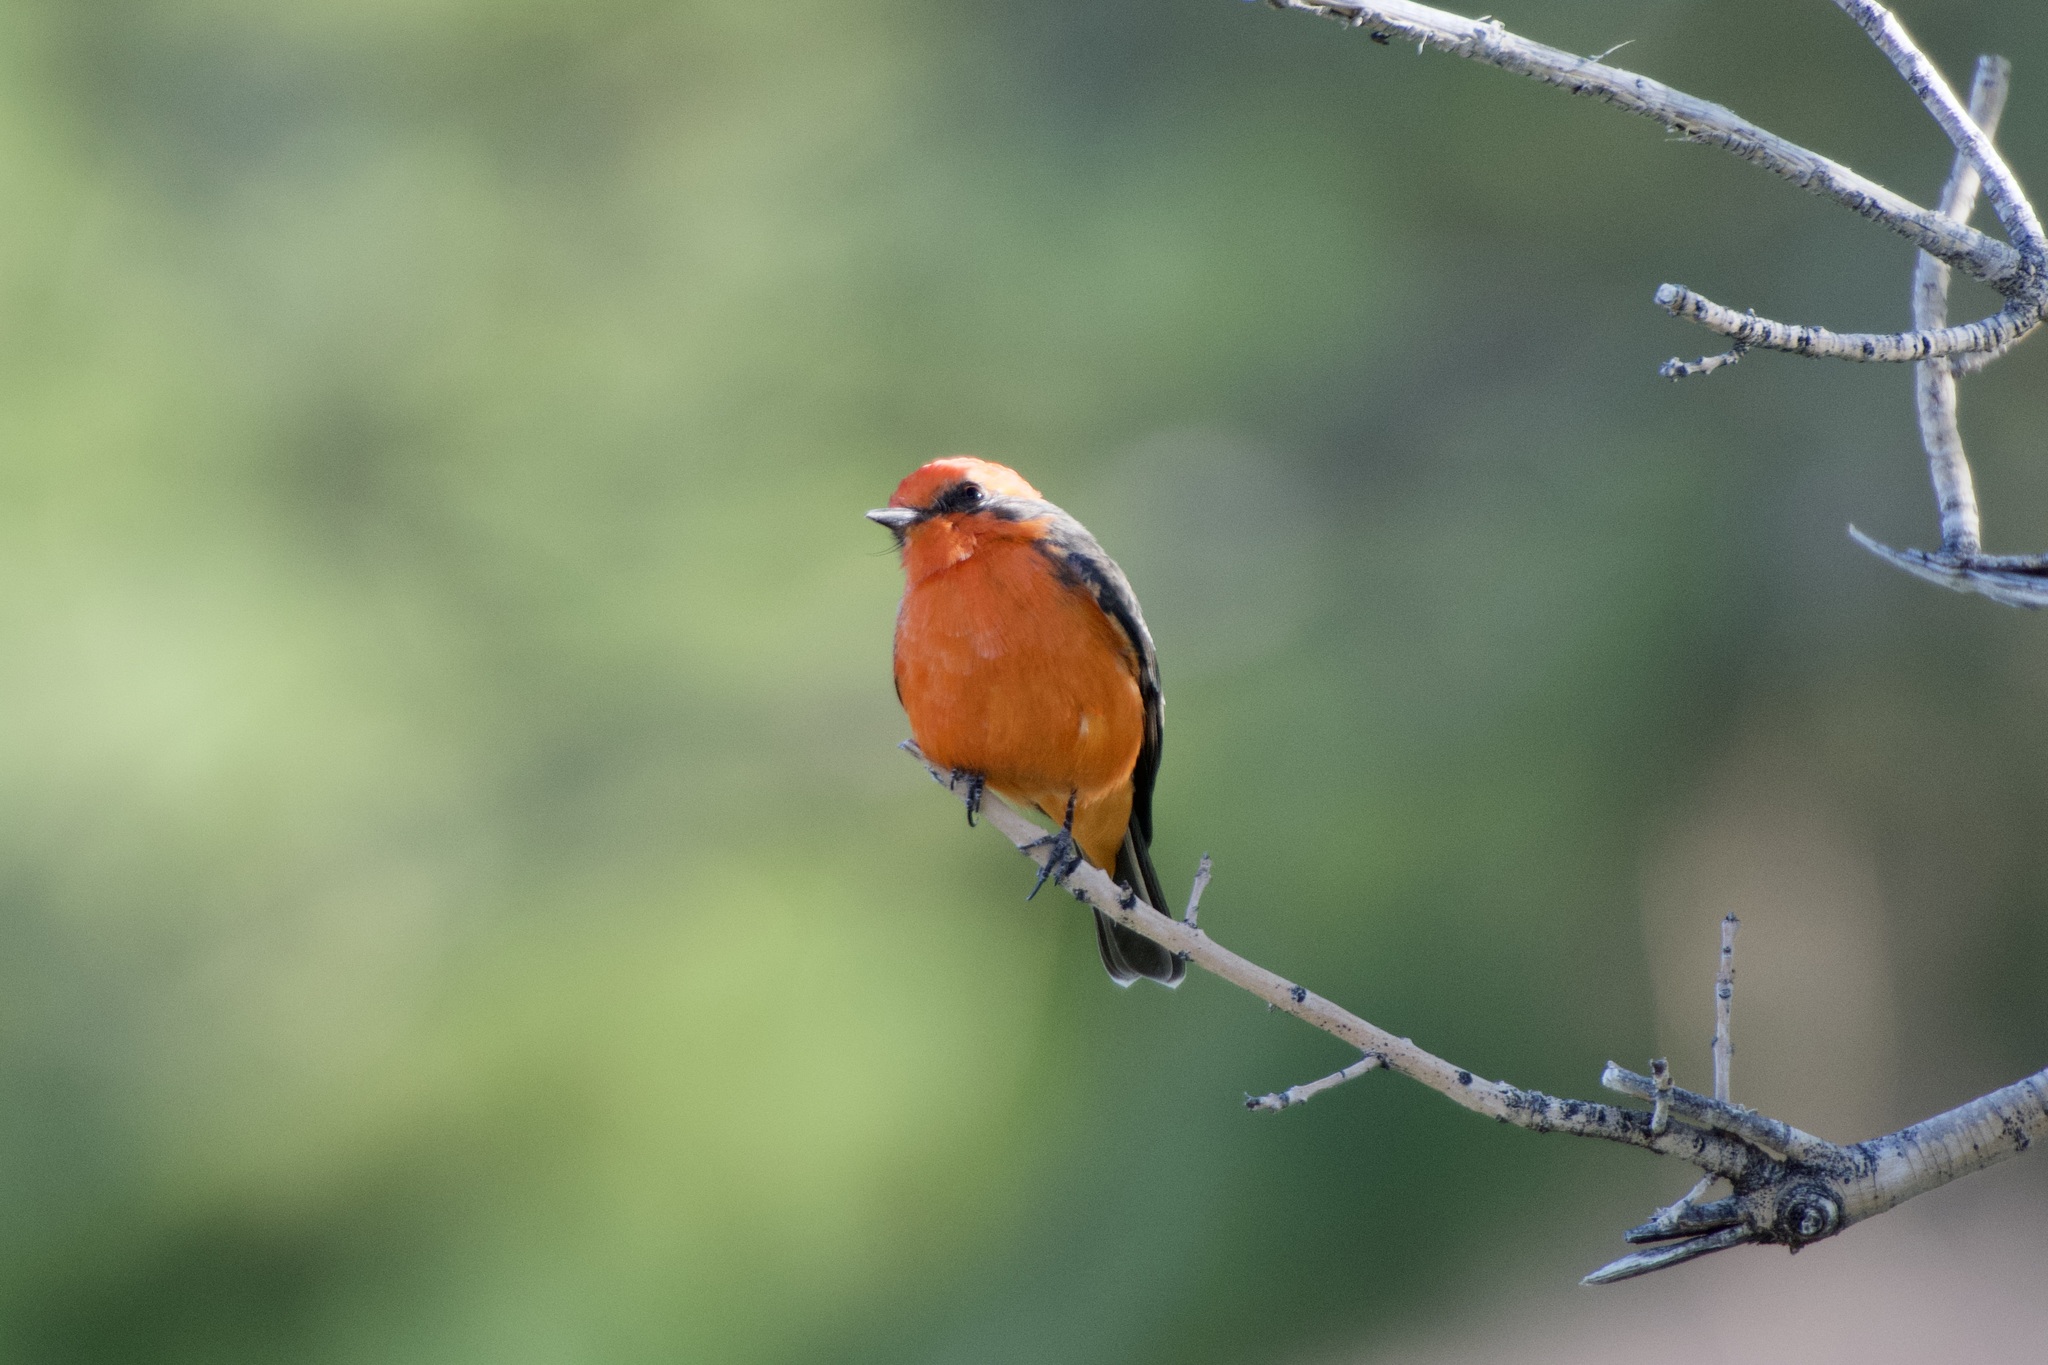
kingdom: Animalia
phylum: Chordata
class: Aves
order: Passeriformes
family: Tyrannidae
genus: Pyrocephalus
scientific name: Pyrocephalus rubinus
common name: Vermilion flycatcher
